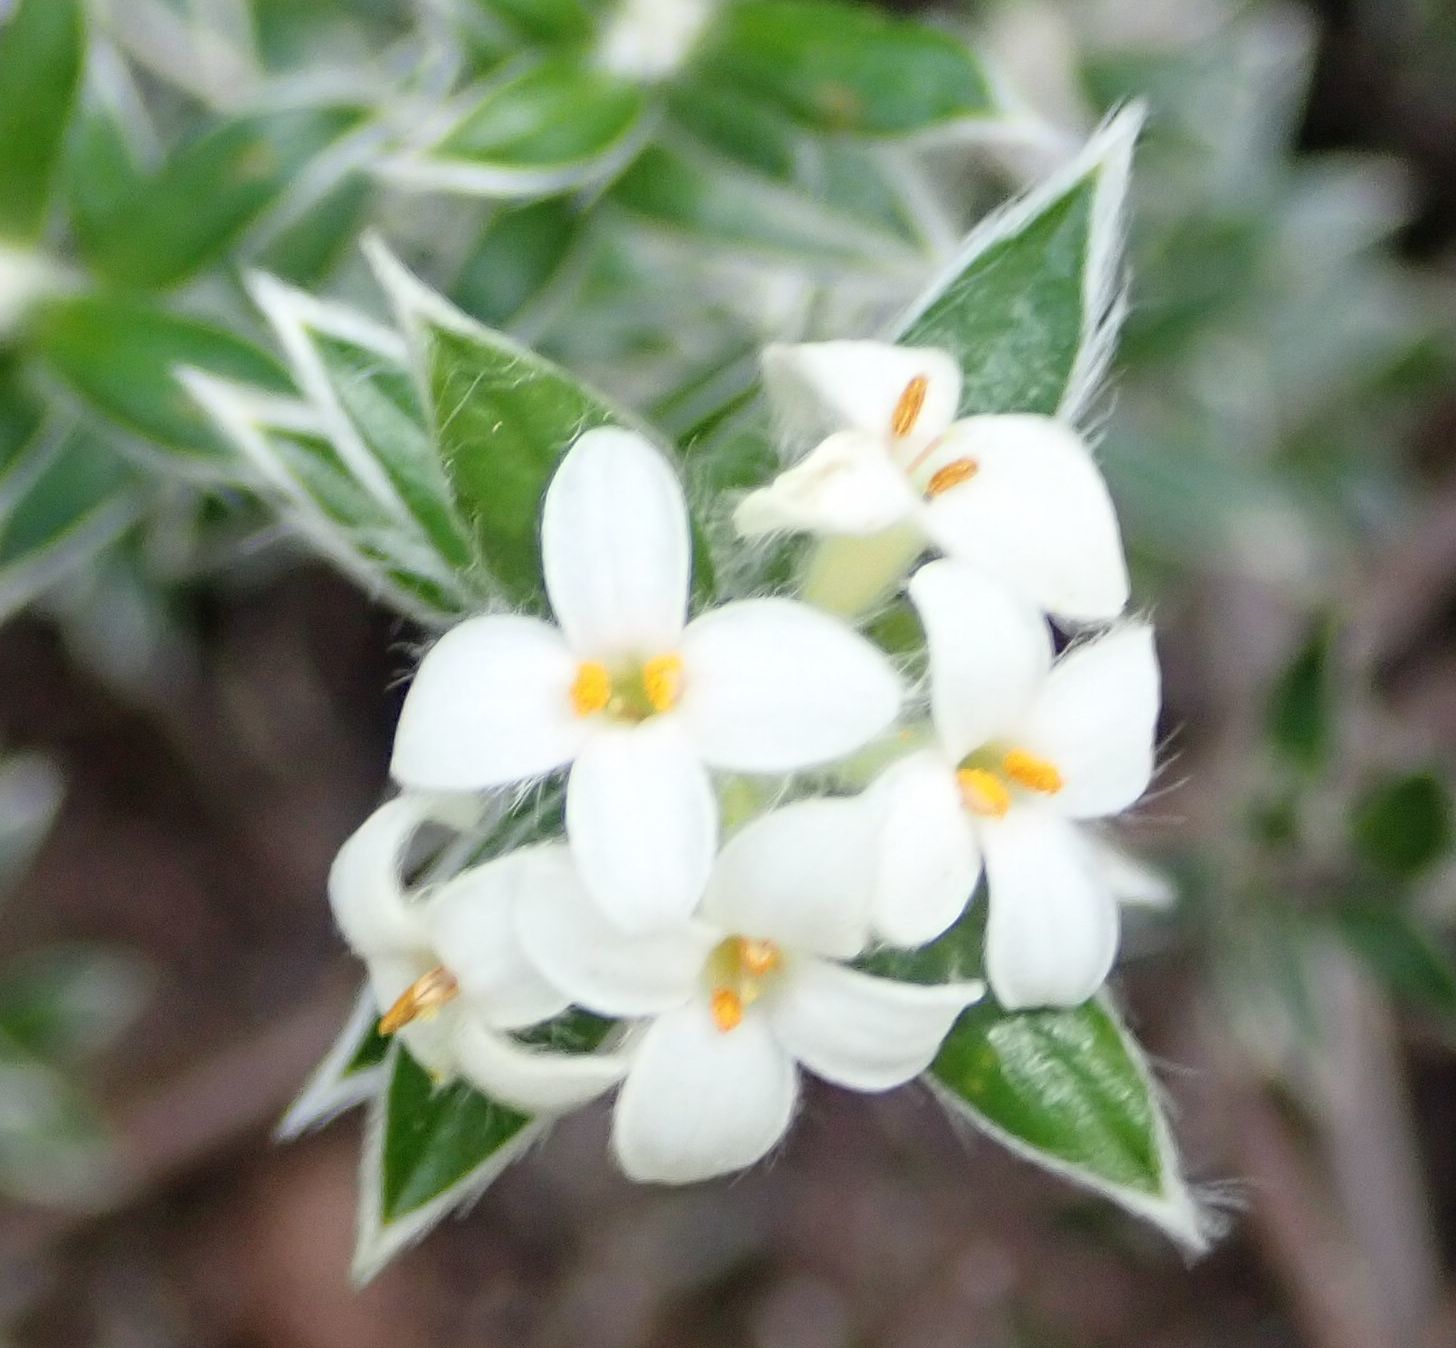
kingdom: Plantae
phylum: Tracheophyta
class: Magnoliopsida
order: Malvales
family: Thymelaeaceae
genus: Pimelea
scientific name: Pimelea pseudolyallii
